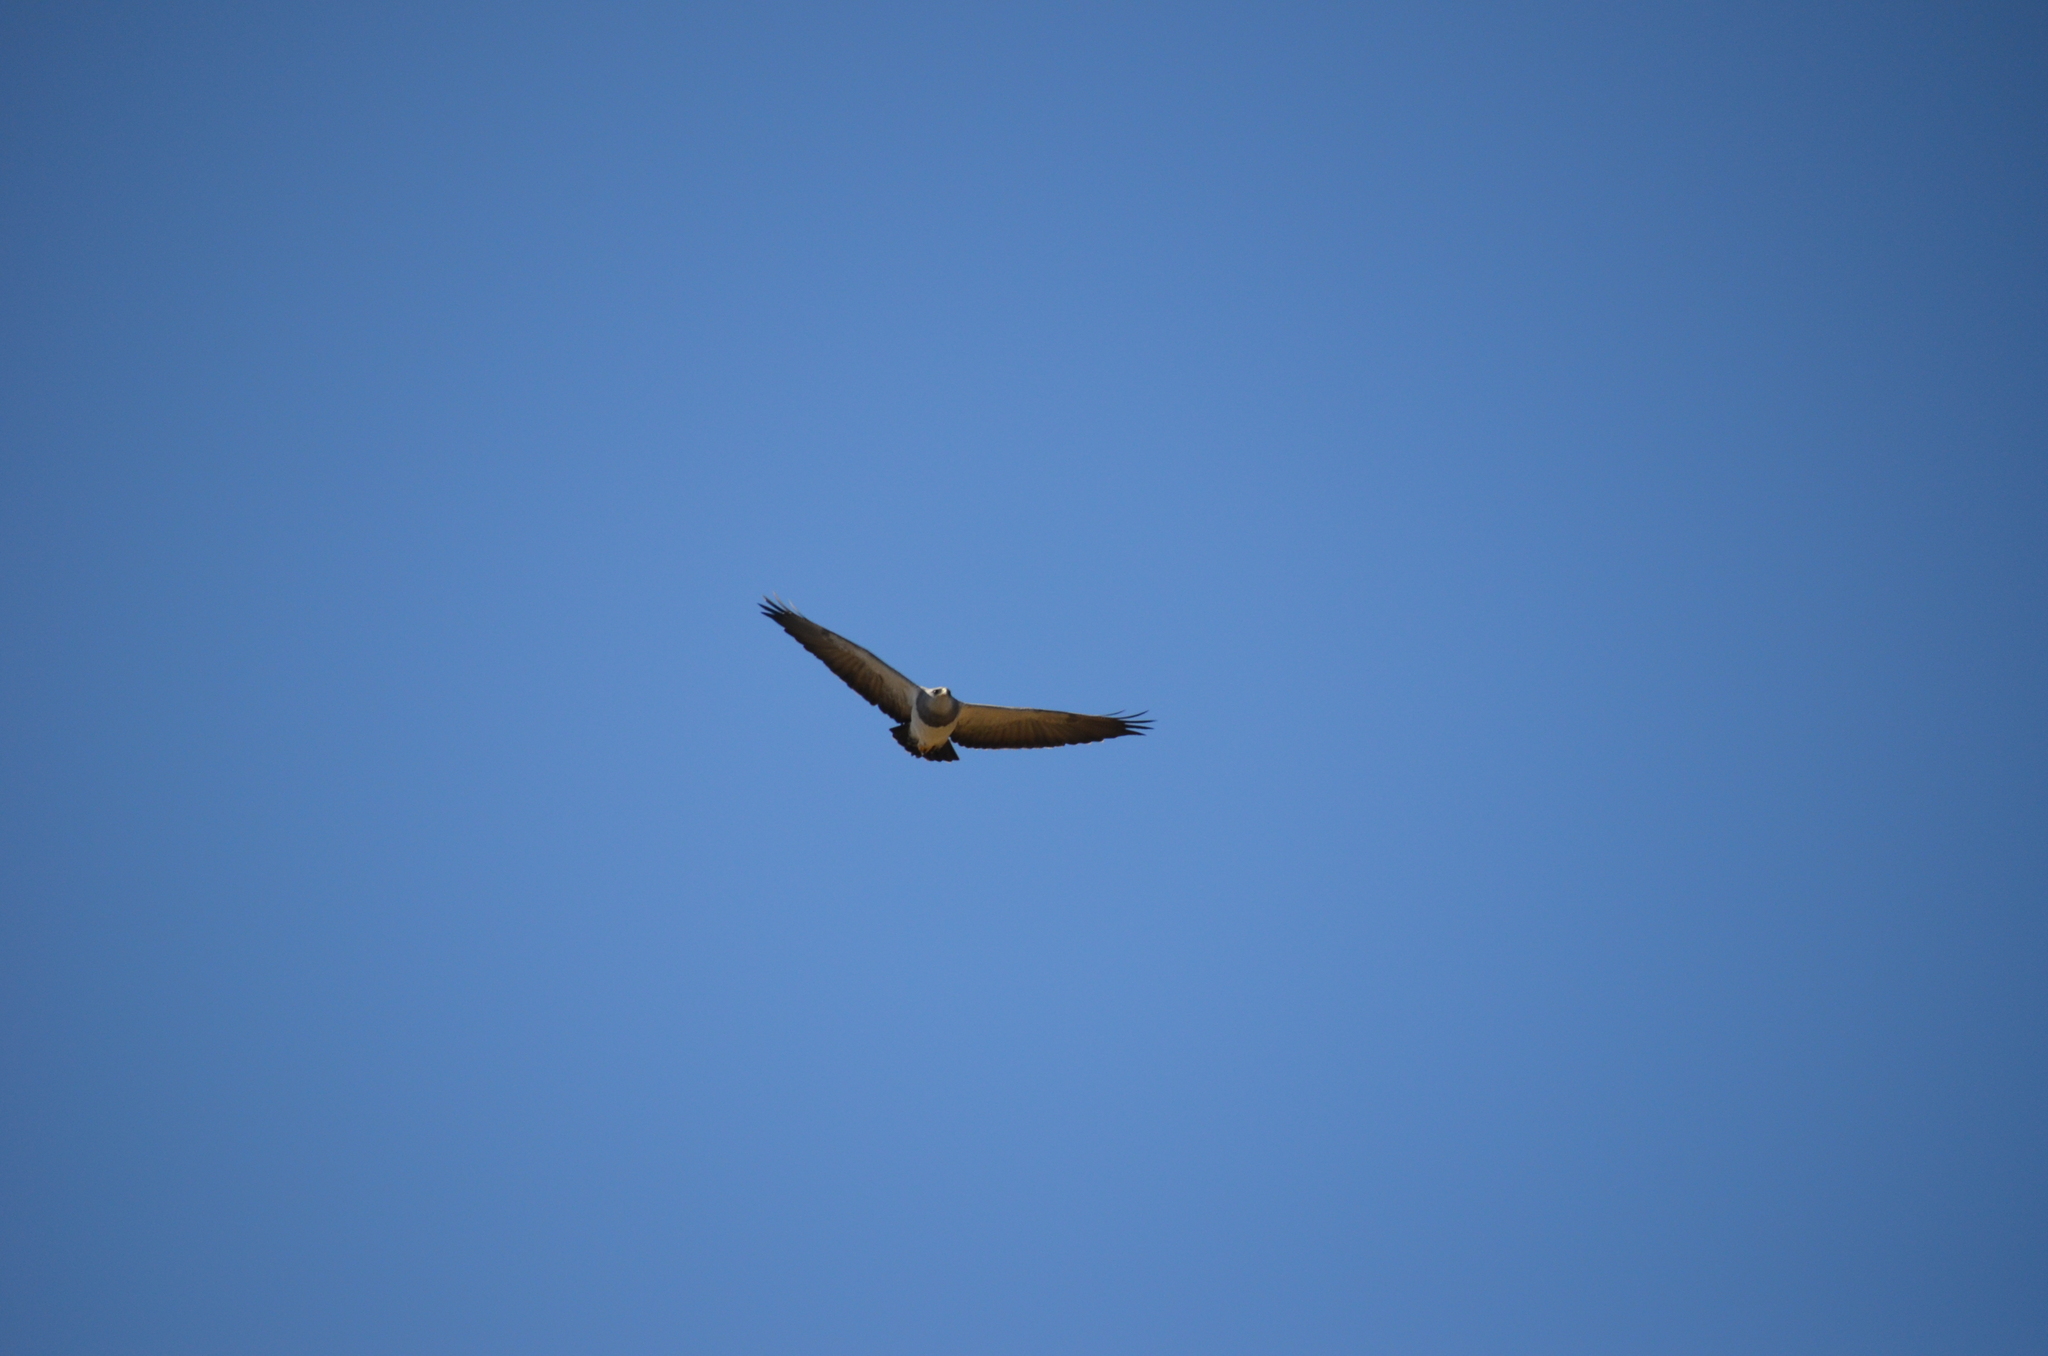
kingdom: Animalia
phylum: Chordata
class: Aves
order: Accipitriformes
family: Accipitridae
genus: Geranoaetus
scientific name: Geranoaetus melanoleucus
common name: Black-chested buzzard-eagle
